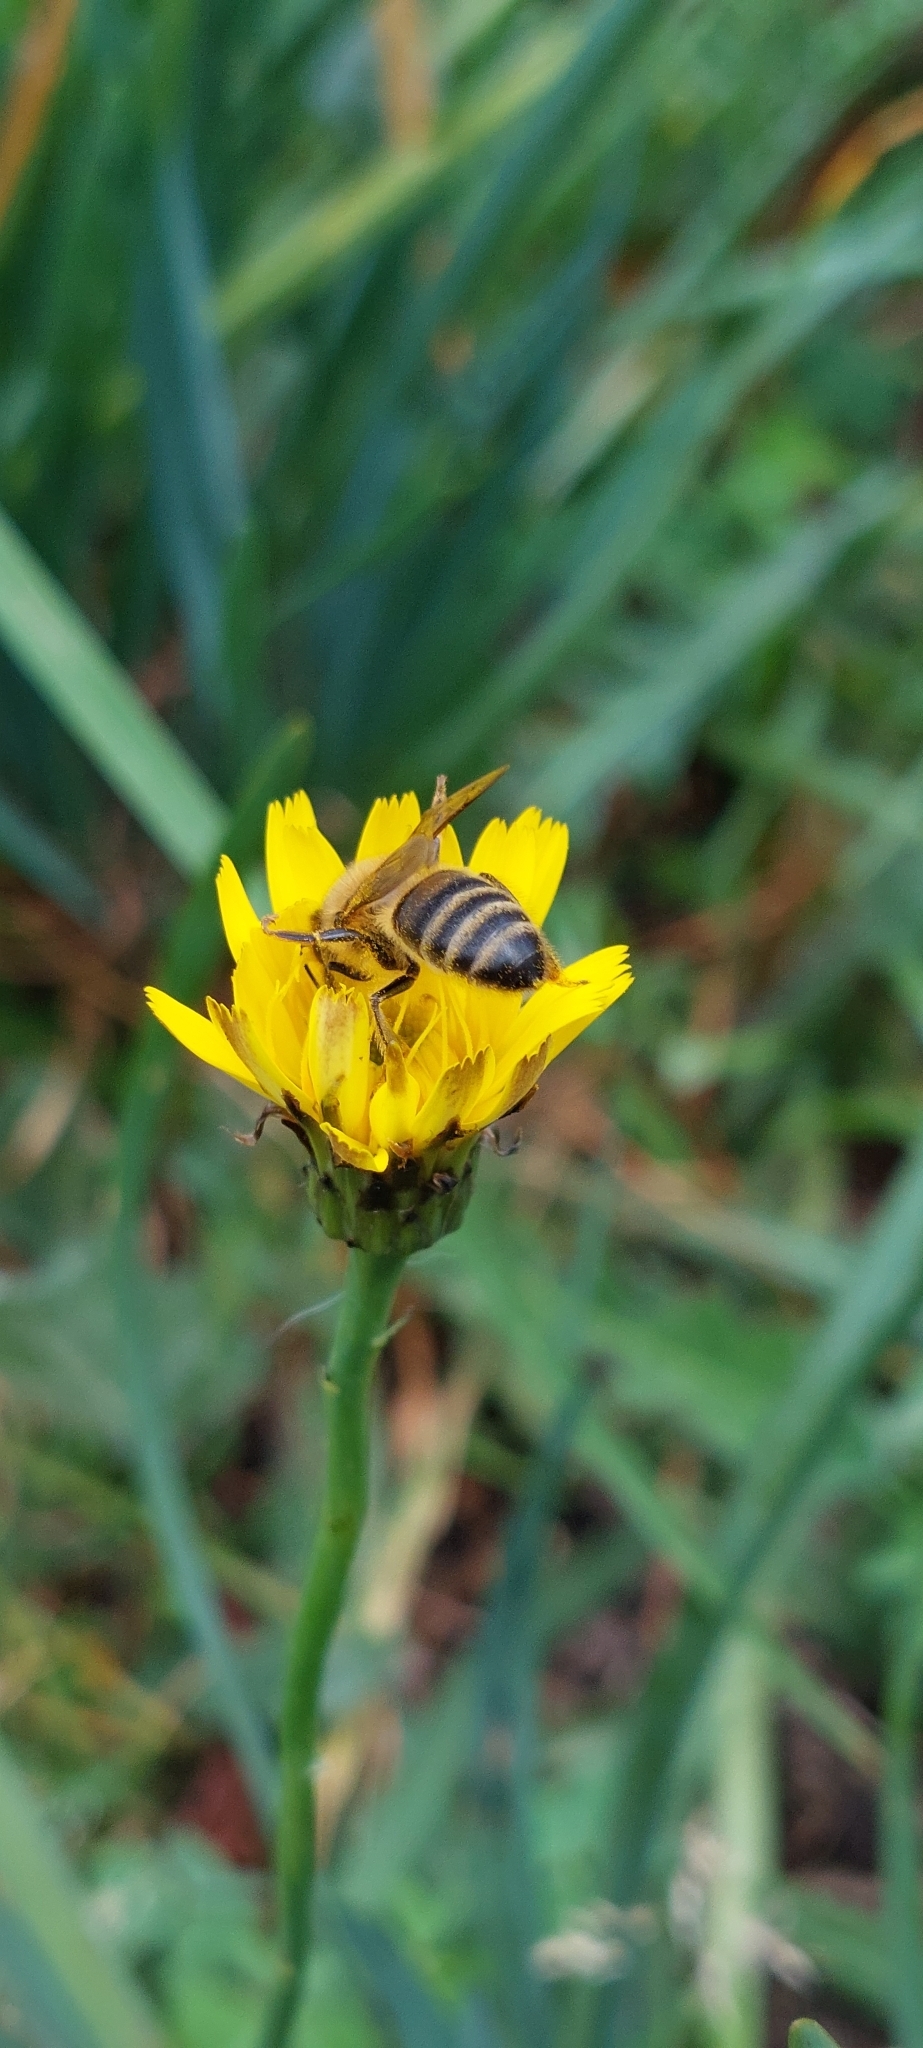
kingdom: Animalia
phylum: Arthropoda
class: Insecta
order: Hymenoptera
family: Apidae
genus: Apis
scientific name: Apis mellifera
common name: Honey bee
